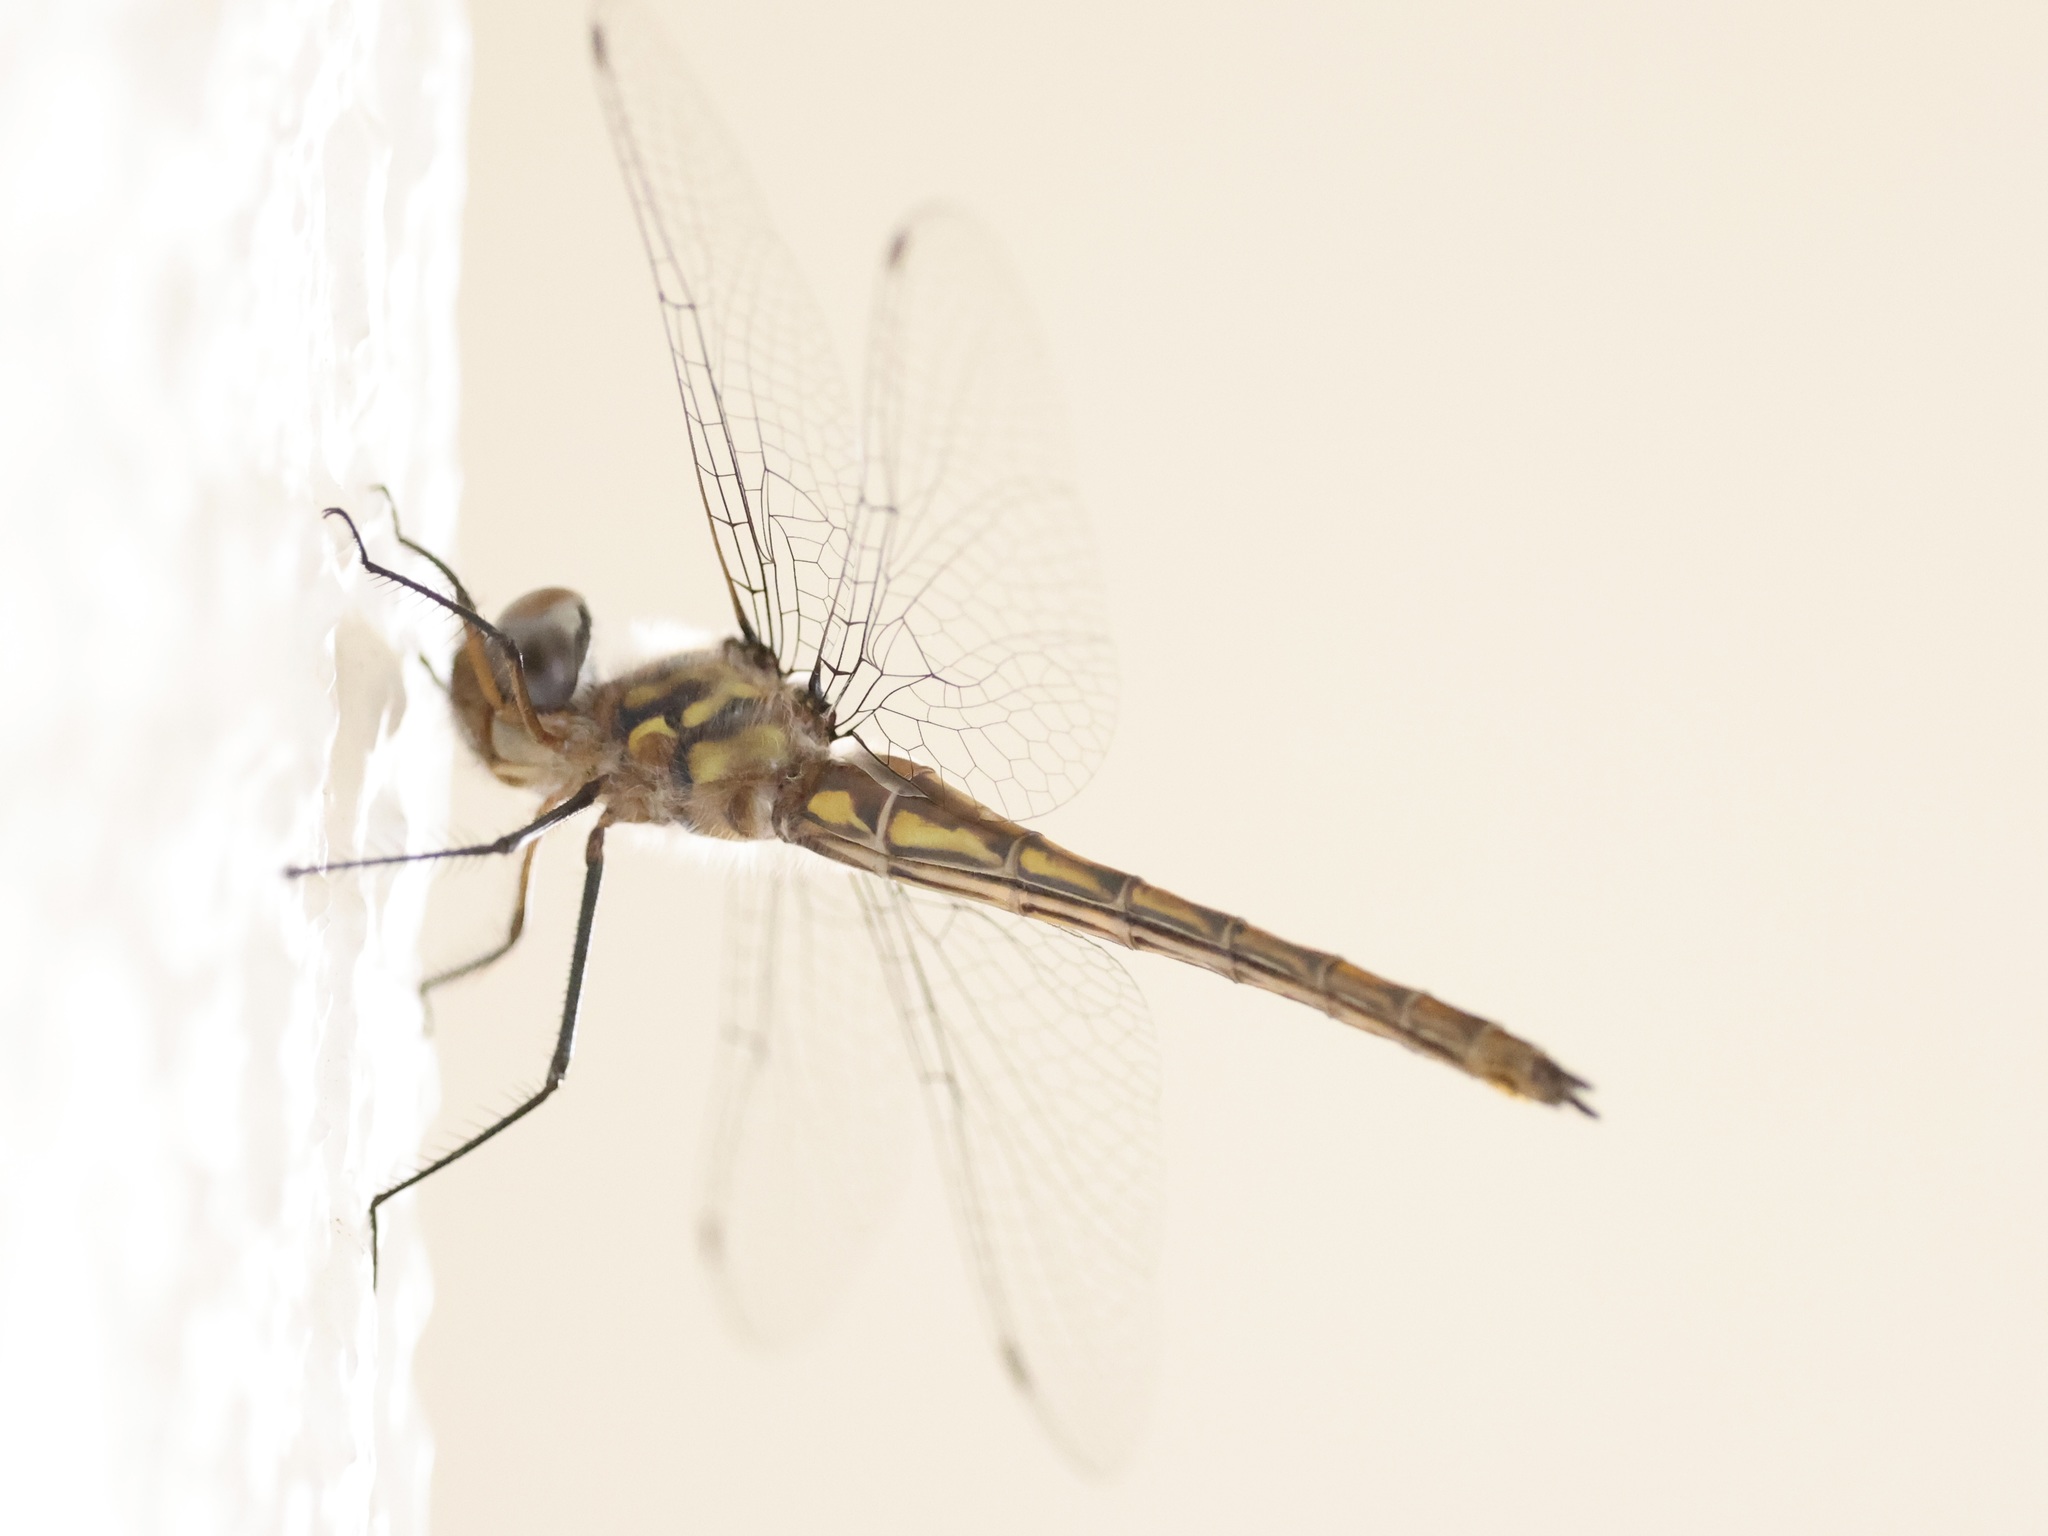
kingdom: Animalia
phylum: Arthropoda
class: Insecta
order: Odonata
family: Corduliidae
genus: Epitheca
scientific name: Epitheca sepia
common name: Sepia baskettail
